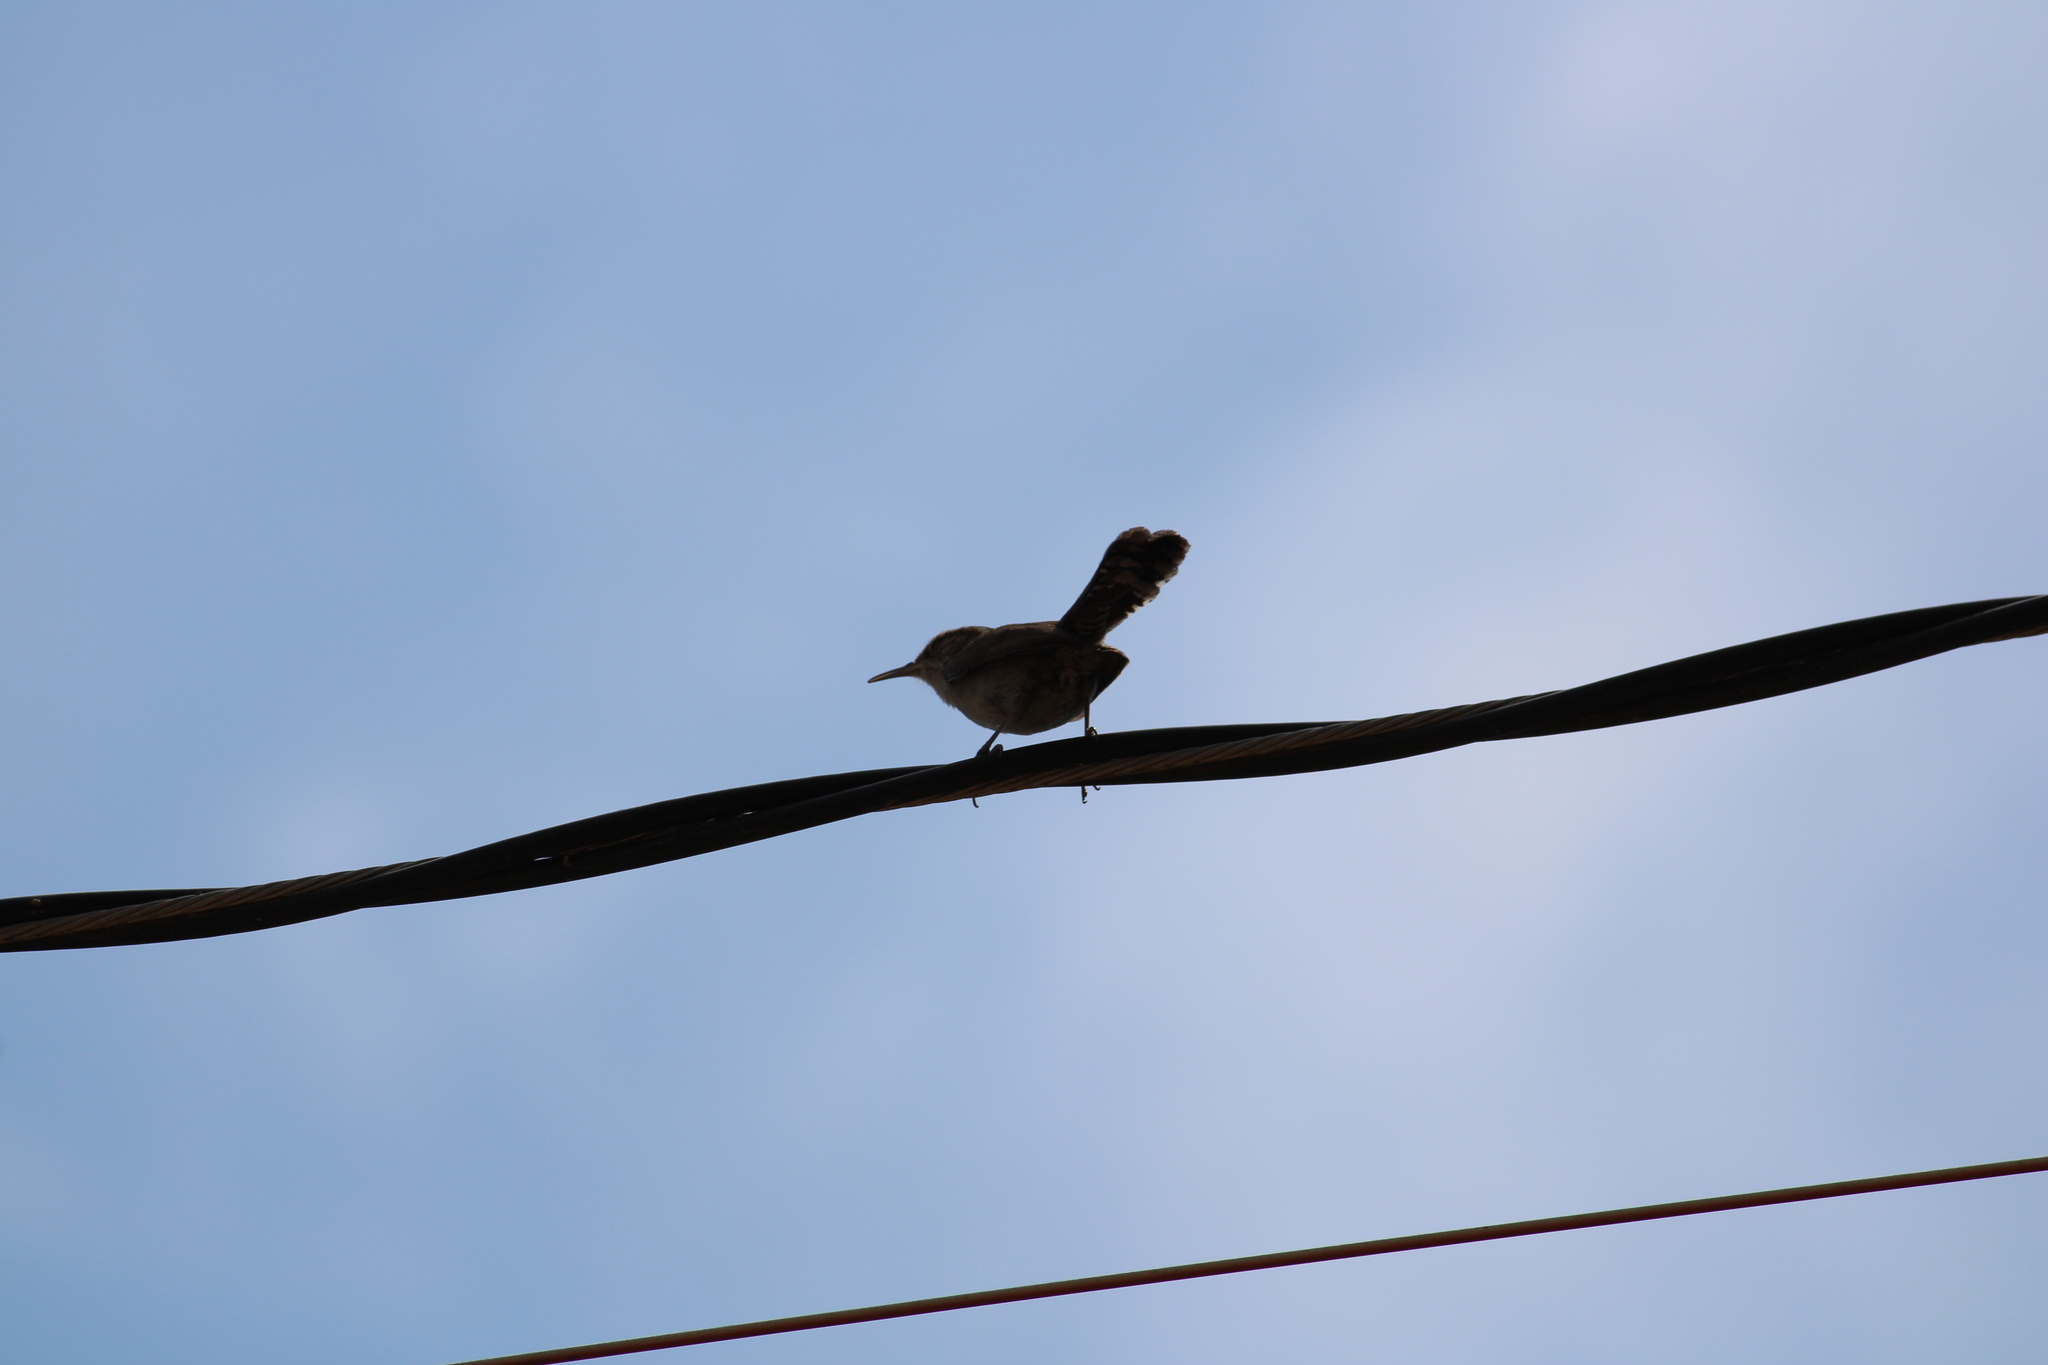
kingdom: Animalia
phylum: Chordata
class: Aves
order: Passeriformes
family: Troglodytidae
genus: Thryomanes
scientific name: Thryomanes bewickii
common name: Bewick's wren
